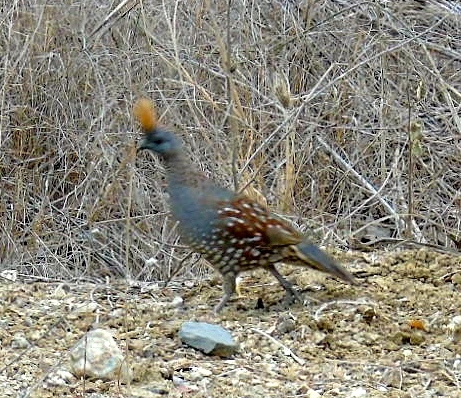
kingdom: Animalia
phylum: Chordata
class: Aves
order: Galliformes
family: Odontophoridae
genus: Callipepla
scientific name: Callipepla douglasii
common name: Elegant quail
